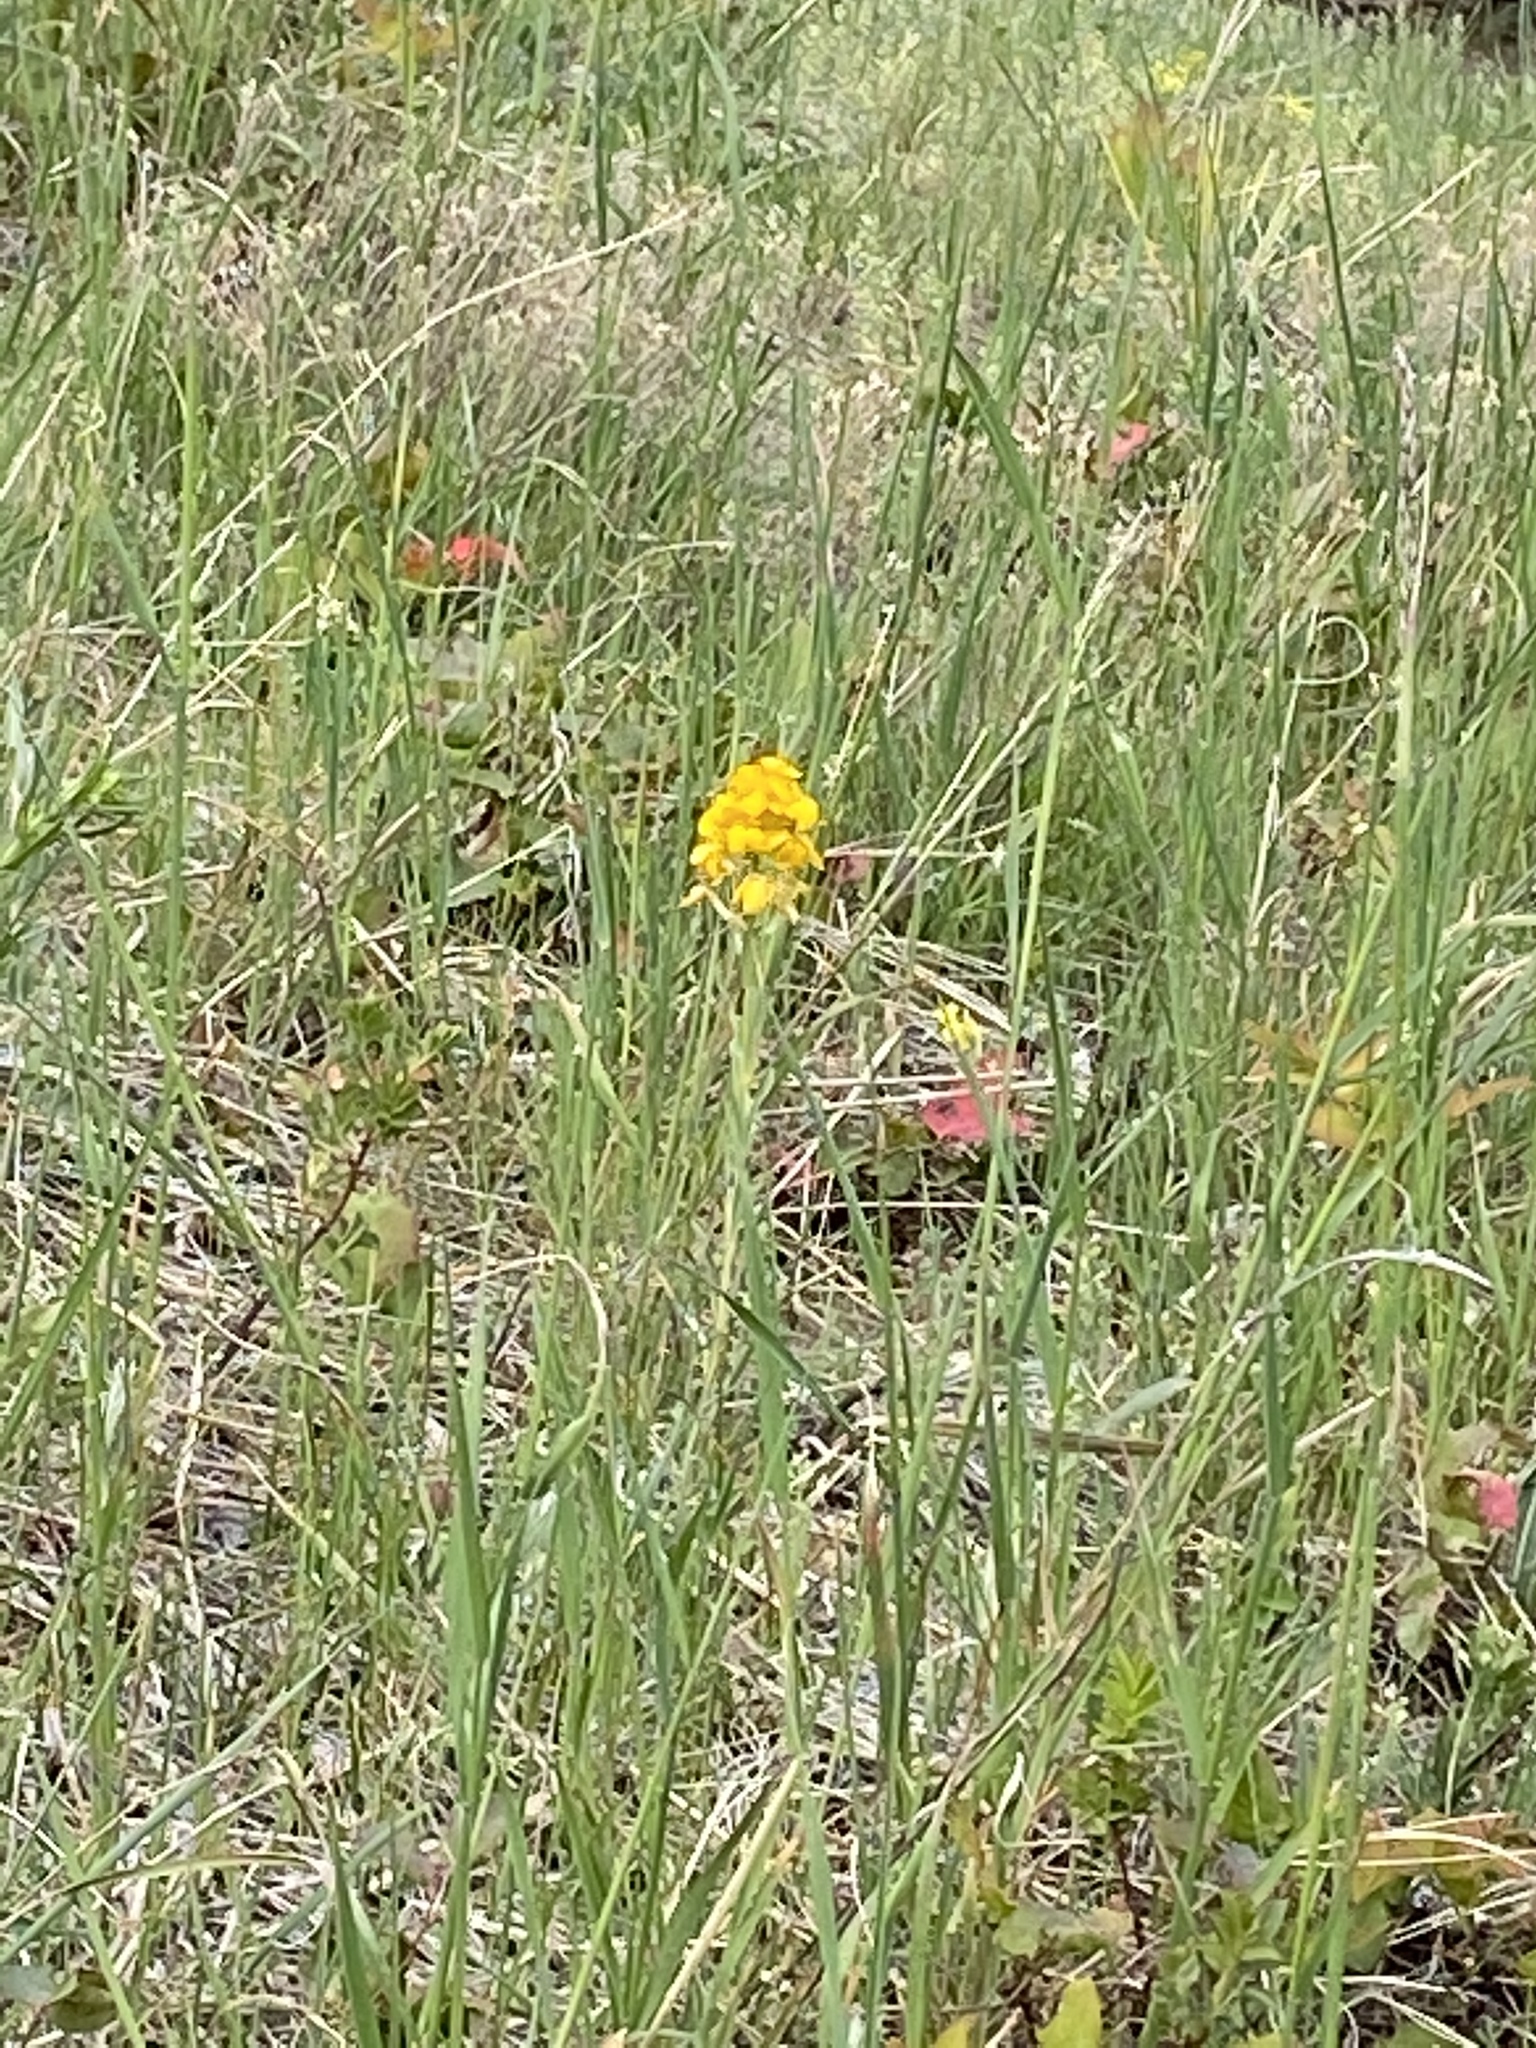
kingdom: Plantae
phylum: Tracheophyta
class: Magnoliopsida
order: Brassicales
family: Brassicaceae
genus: Erysimum
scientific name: Erysimum capitatum
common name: Western wallflower
